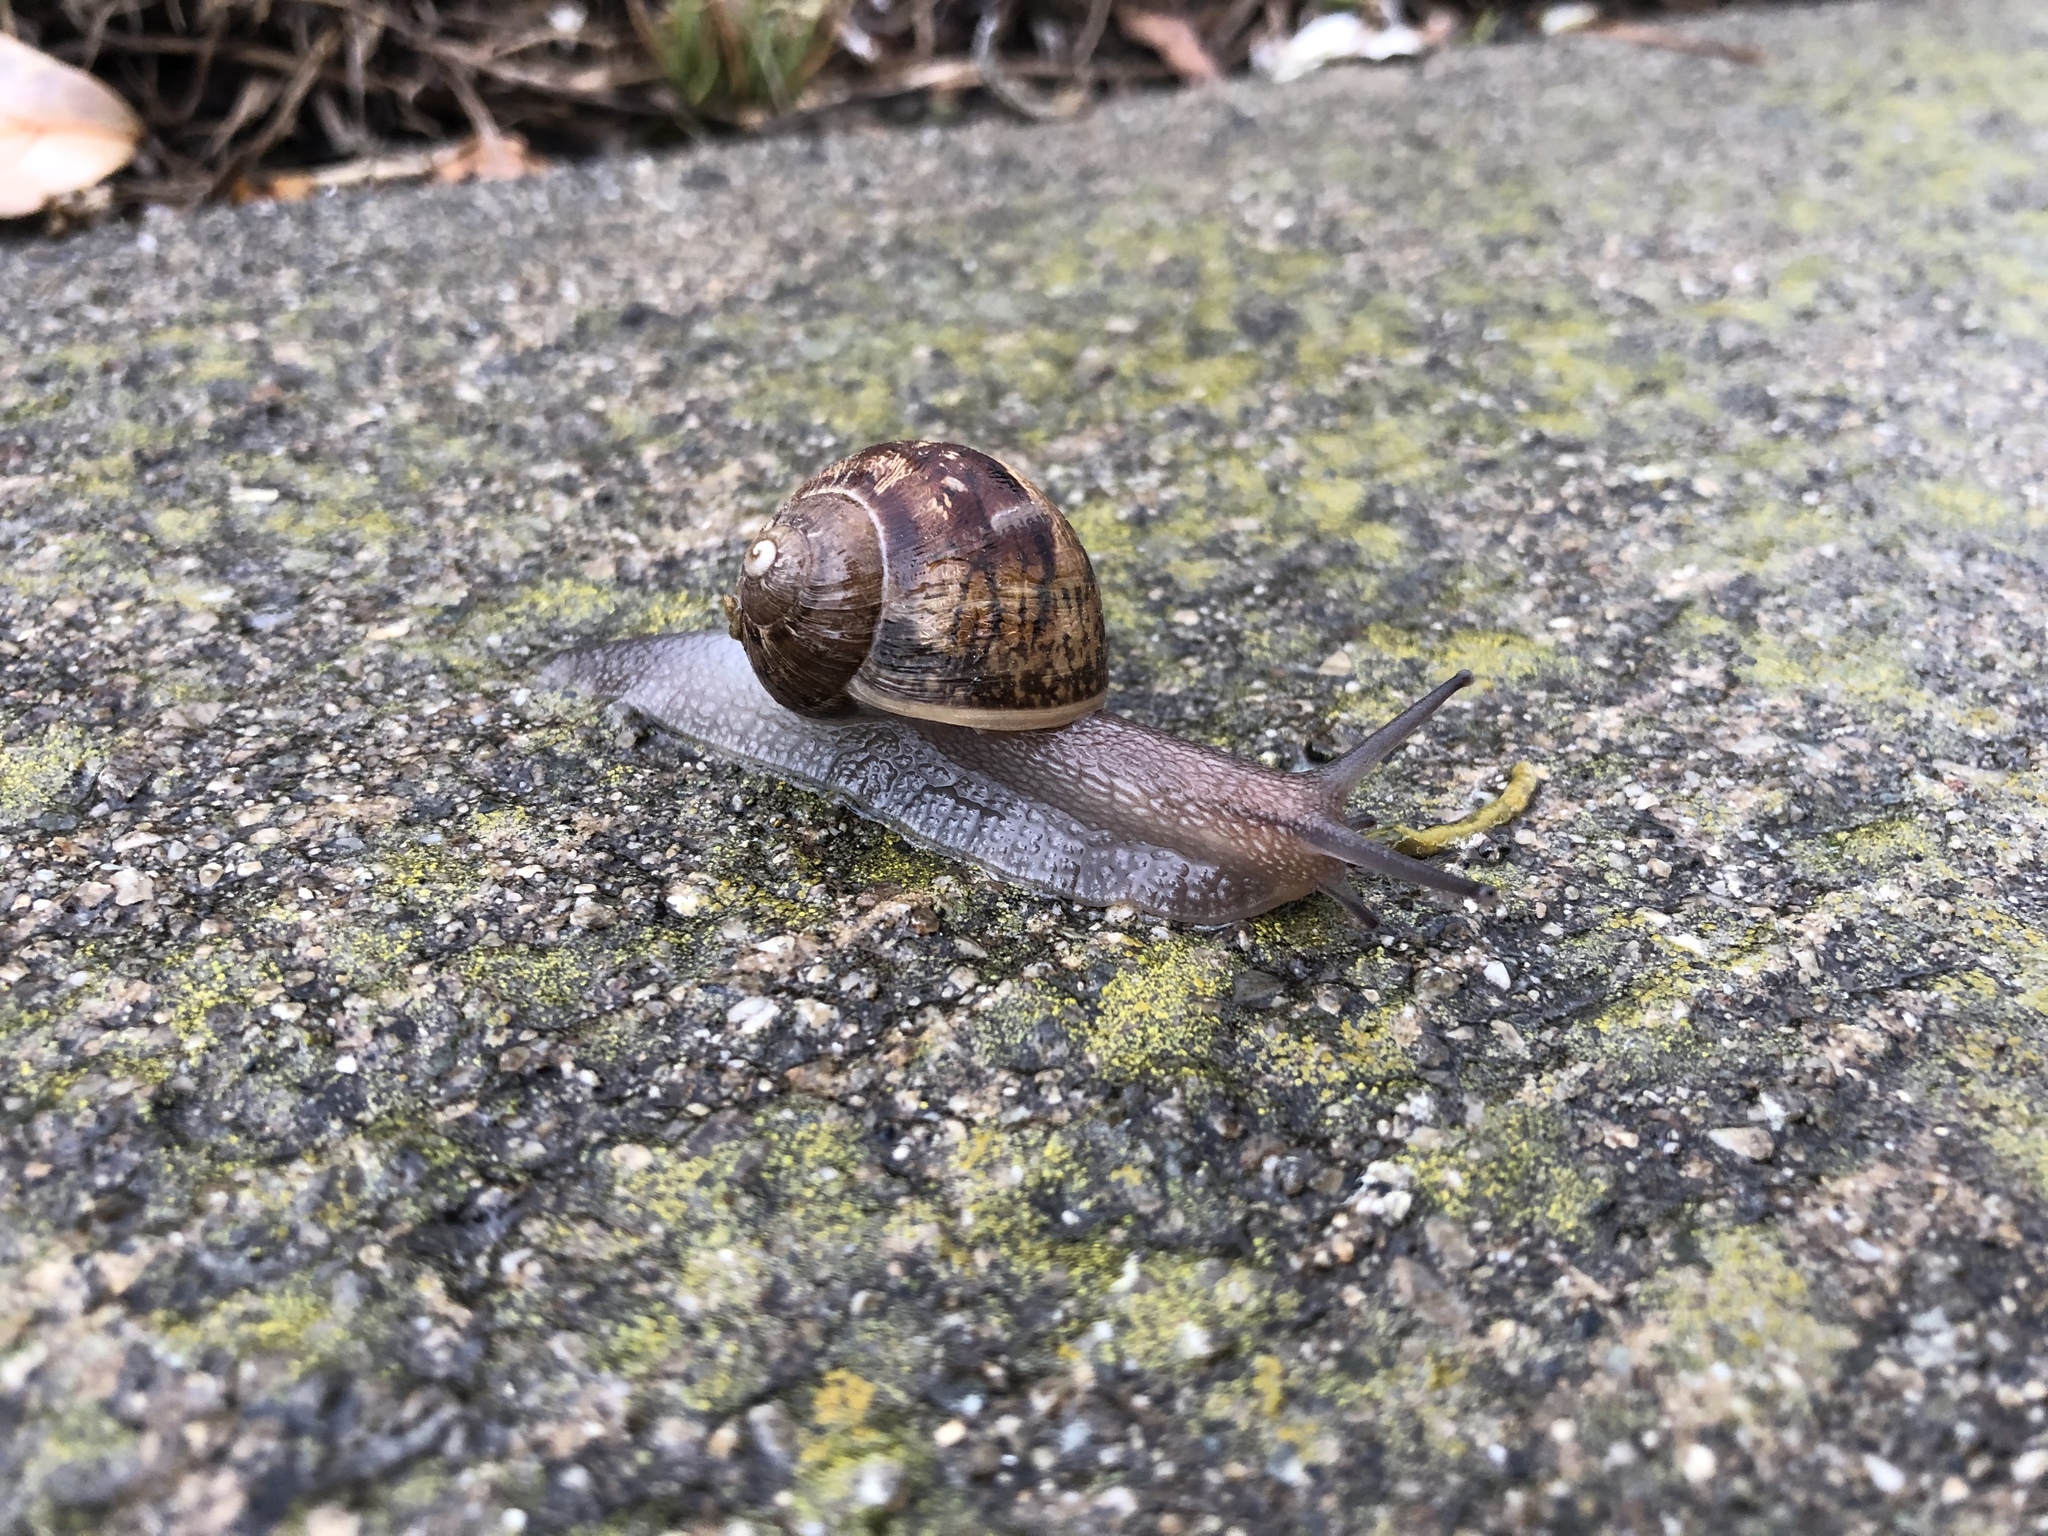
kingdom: Animalia
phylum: Mollusca
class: Gastropoda
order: Stylommatophora
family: Helicidae
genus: Cornu
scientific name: Cornu aspersum
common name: Brown garden snail
